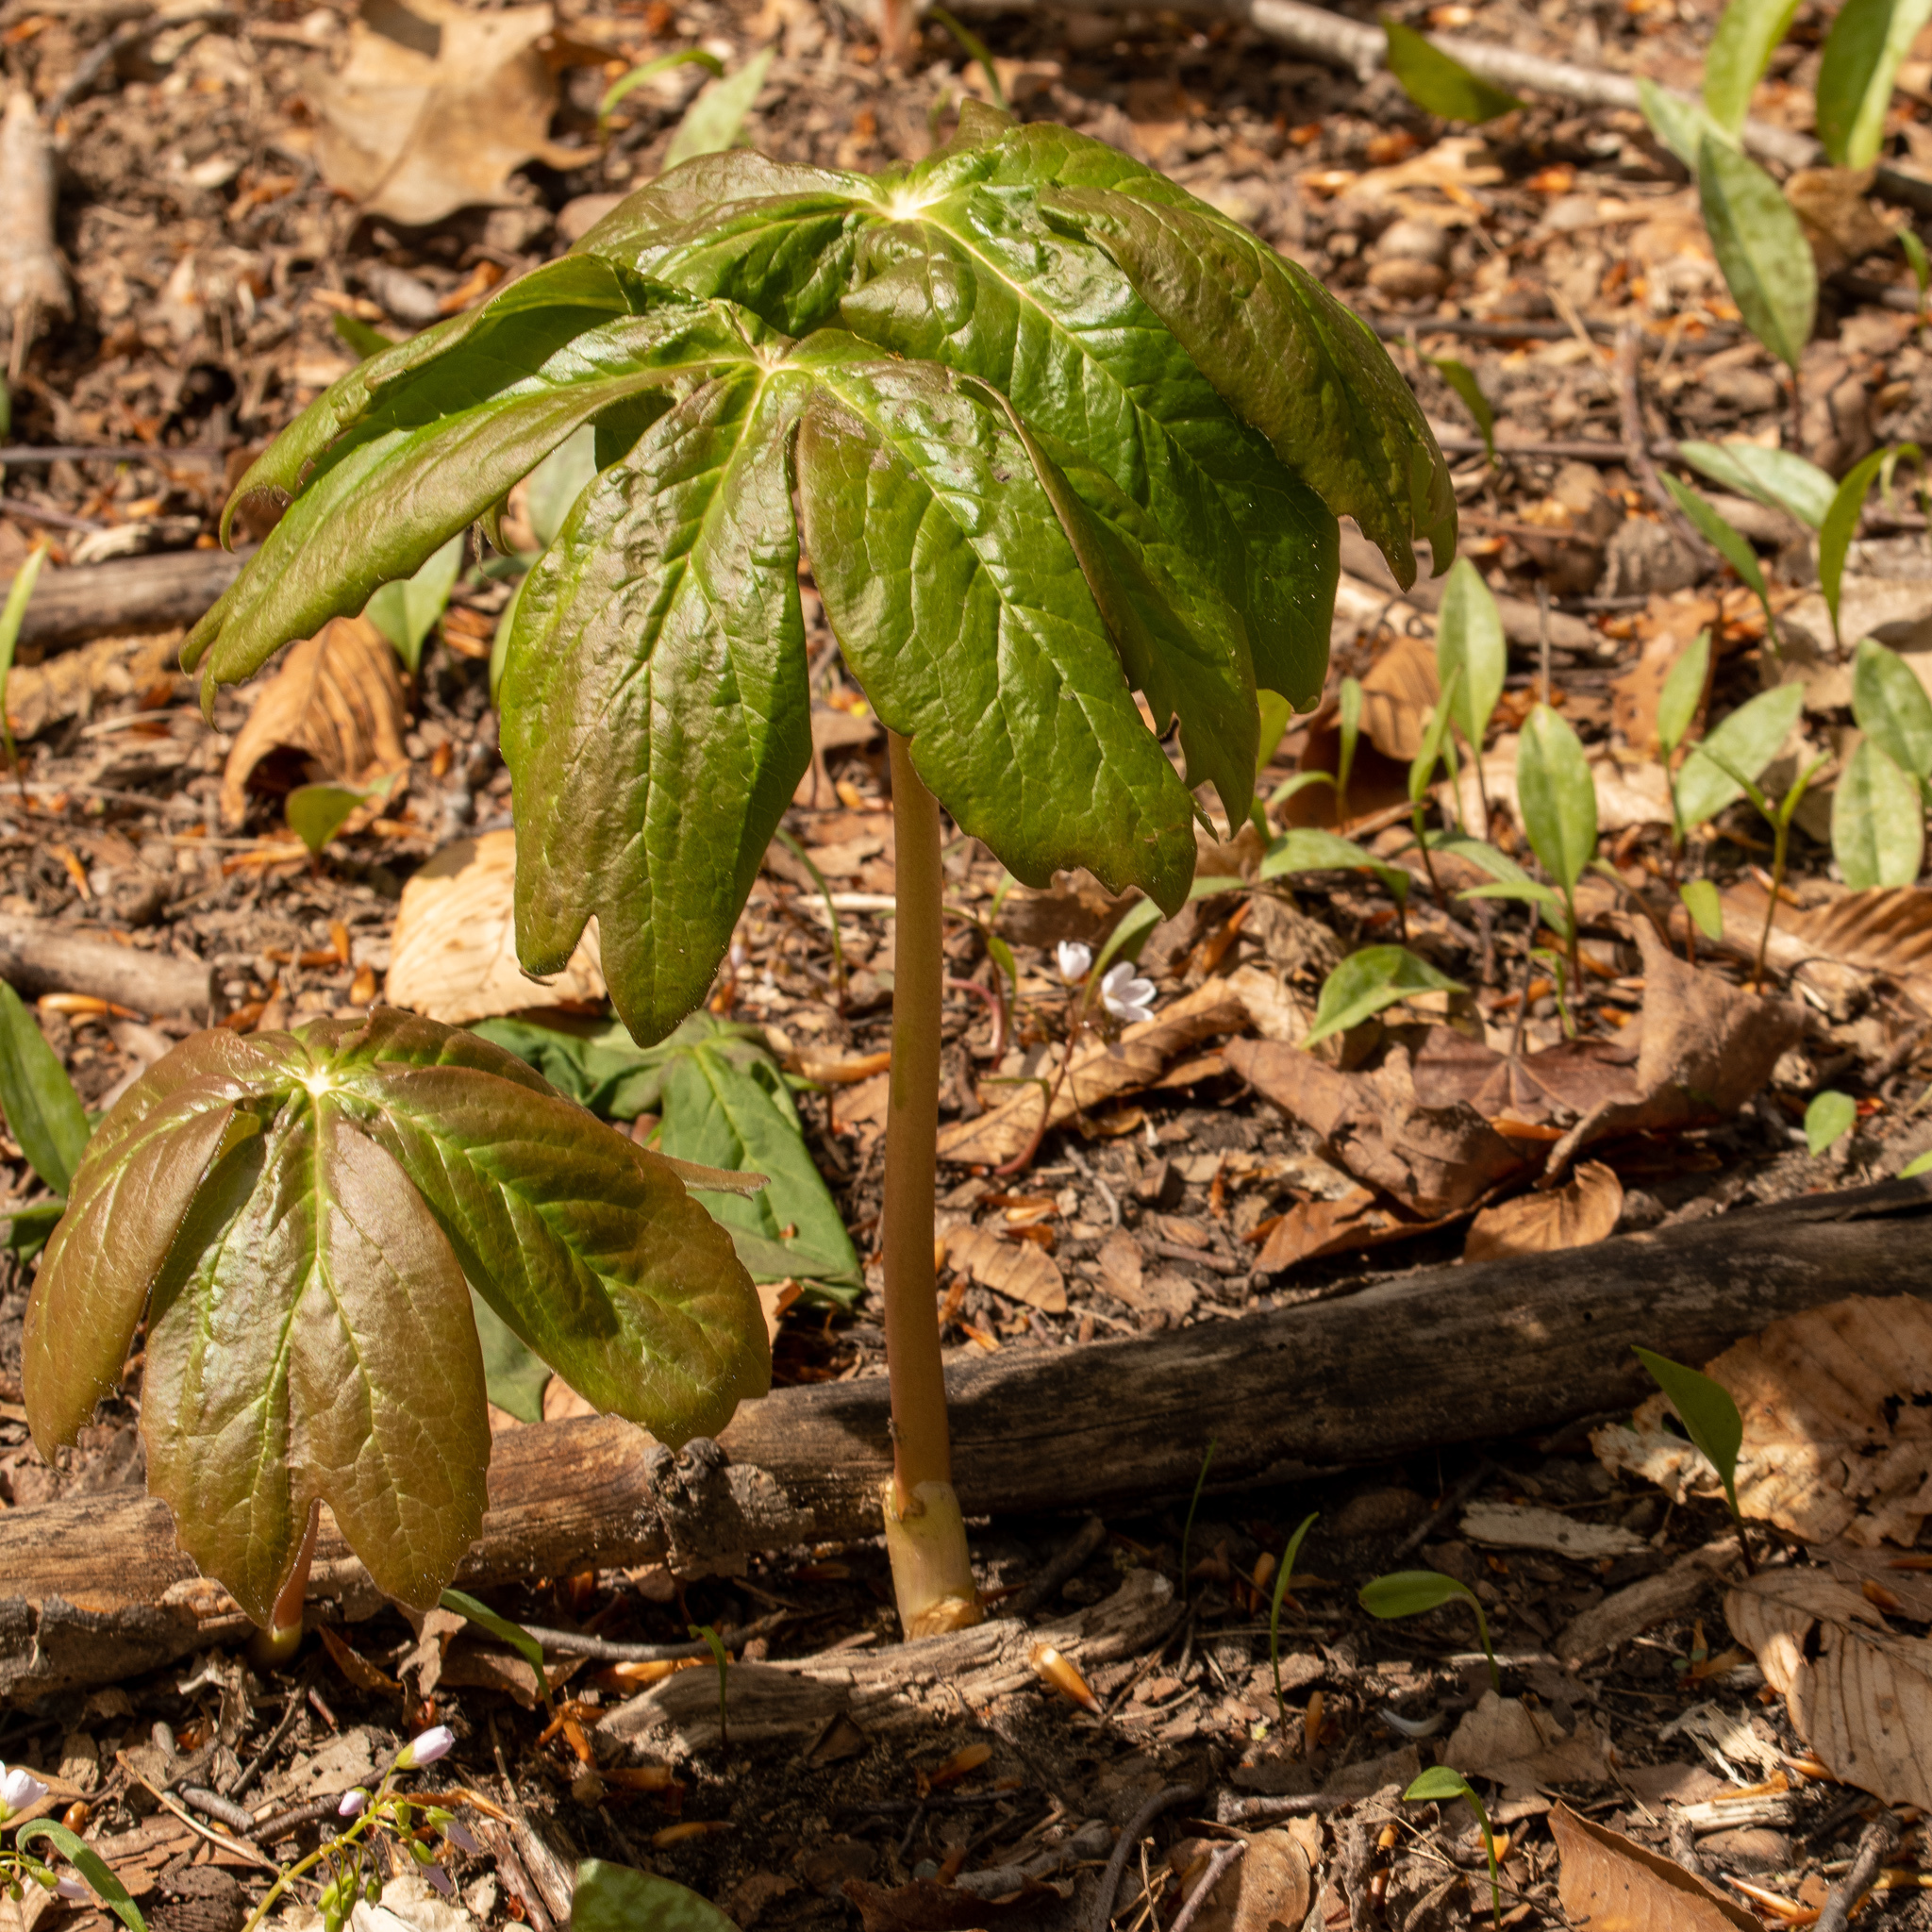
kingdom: Plantae
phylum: Tracheophyta
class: Magnoliopsida
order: Ranunculales
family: Berberidaceae
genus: Podophyllum
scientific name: Podophyllum peltatum
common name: Wild mandrake
